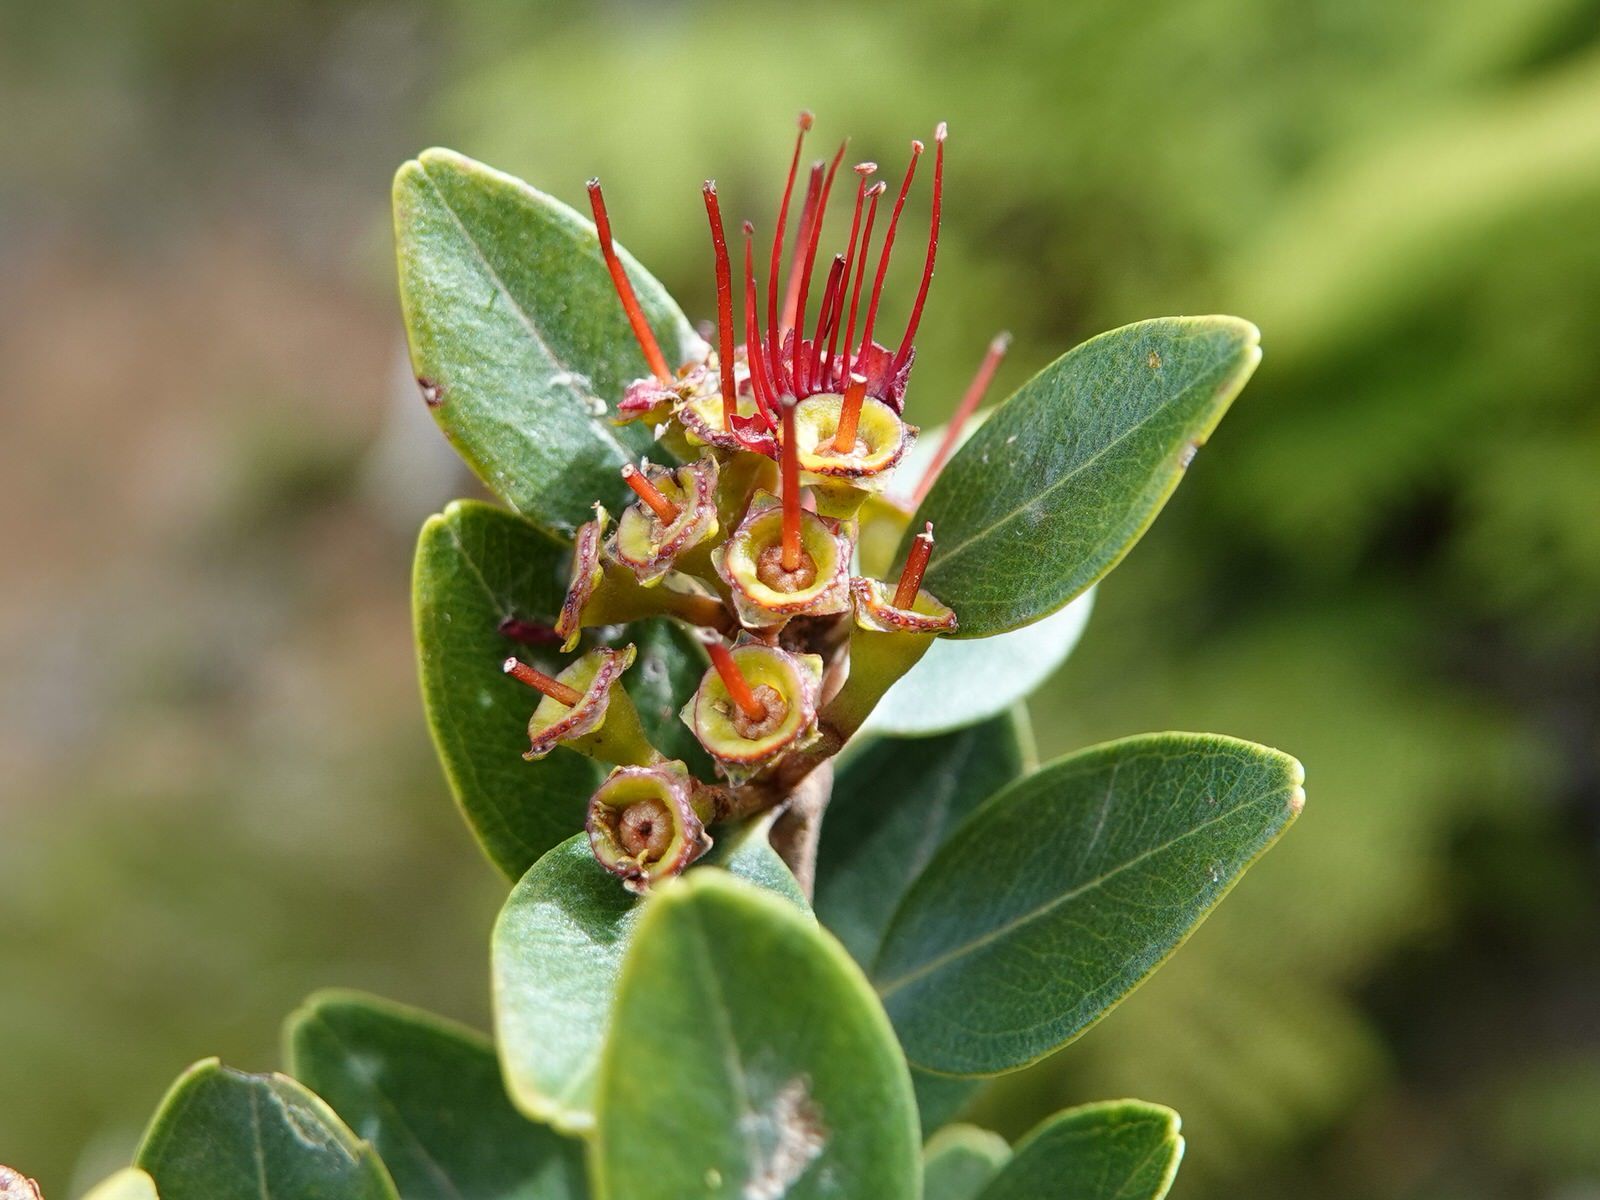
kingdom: Plantae
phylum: Tracheophyta
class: Magnoliopsida
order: Myrtales
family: Myrtaceae
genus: Metrosideros
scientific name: Metrosideros robusta
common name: Northern rata
